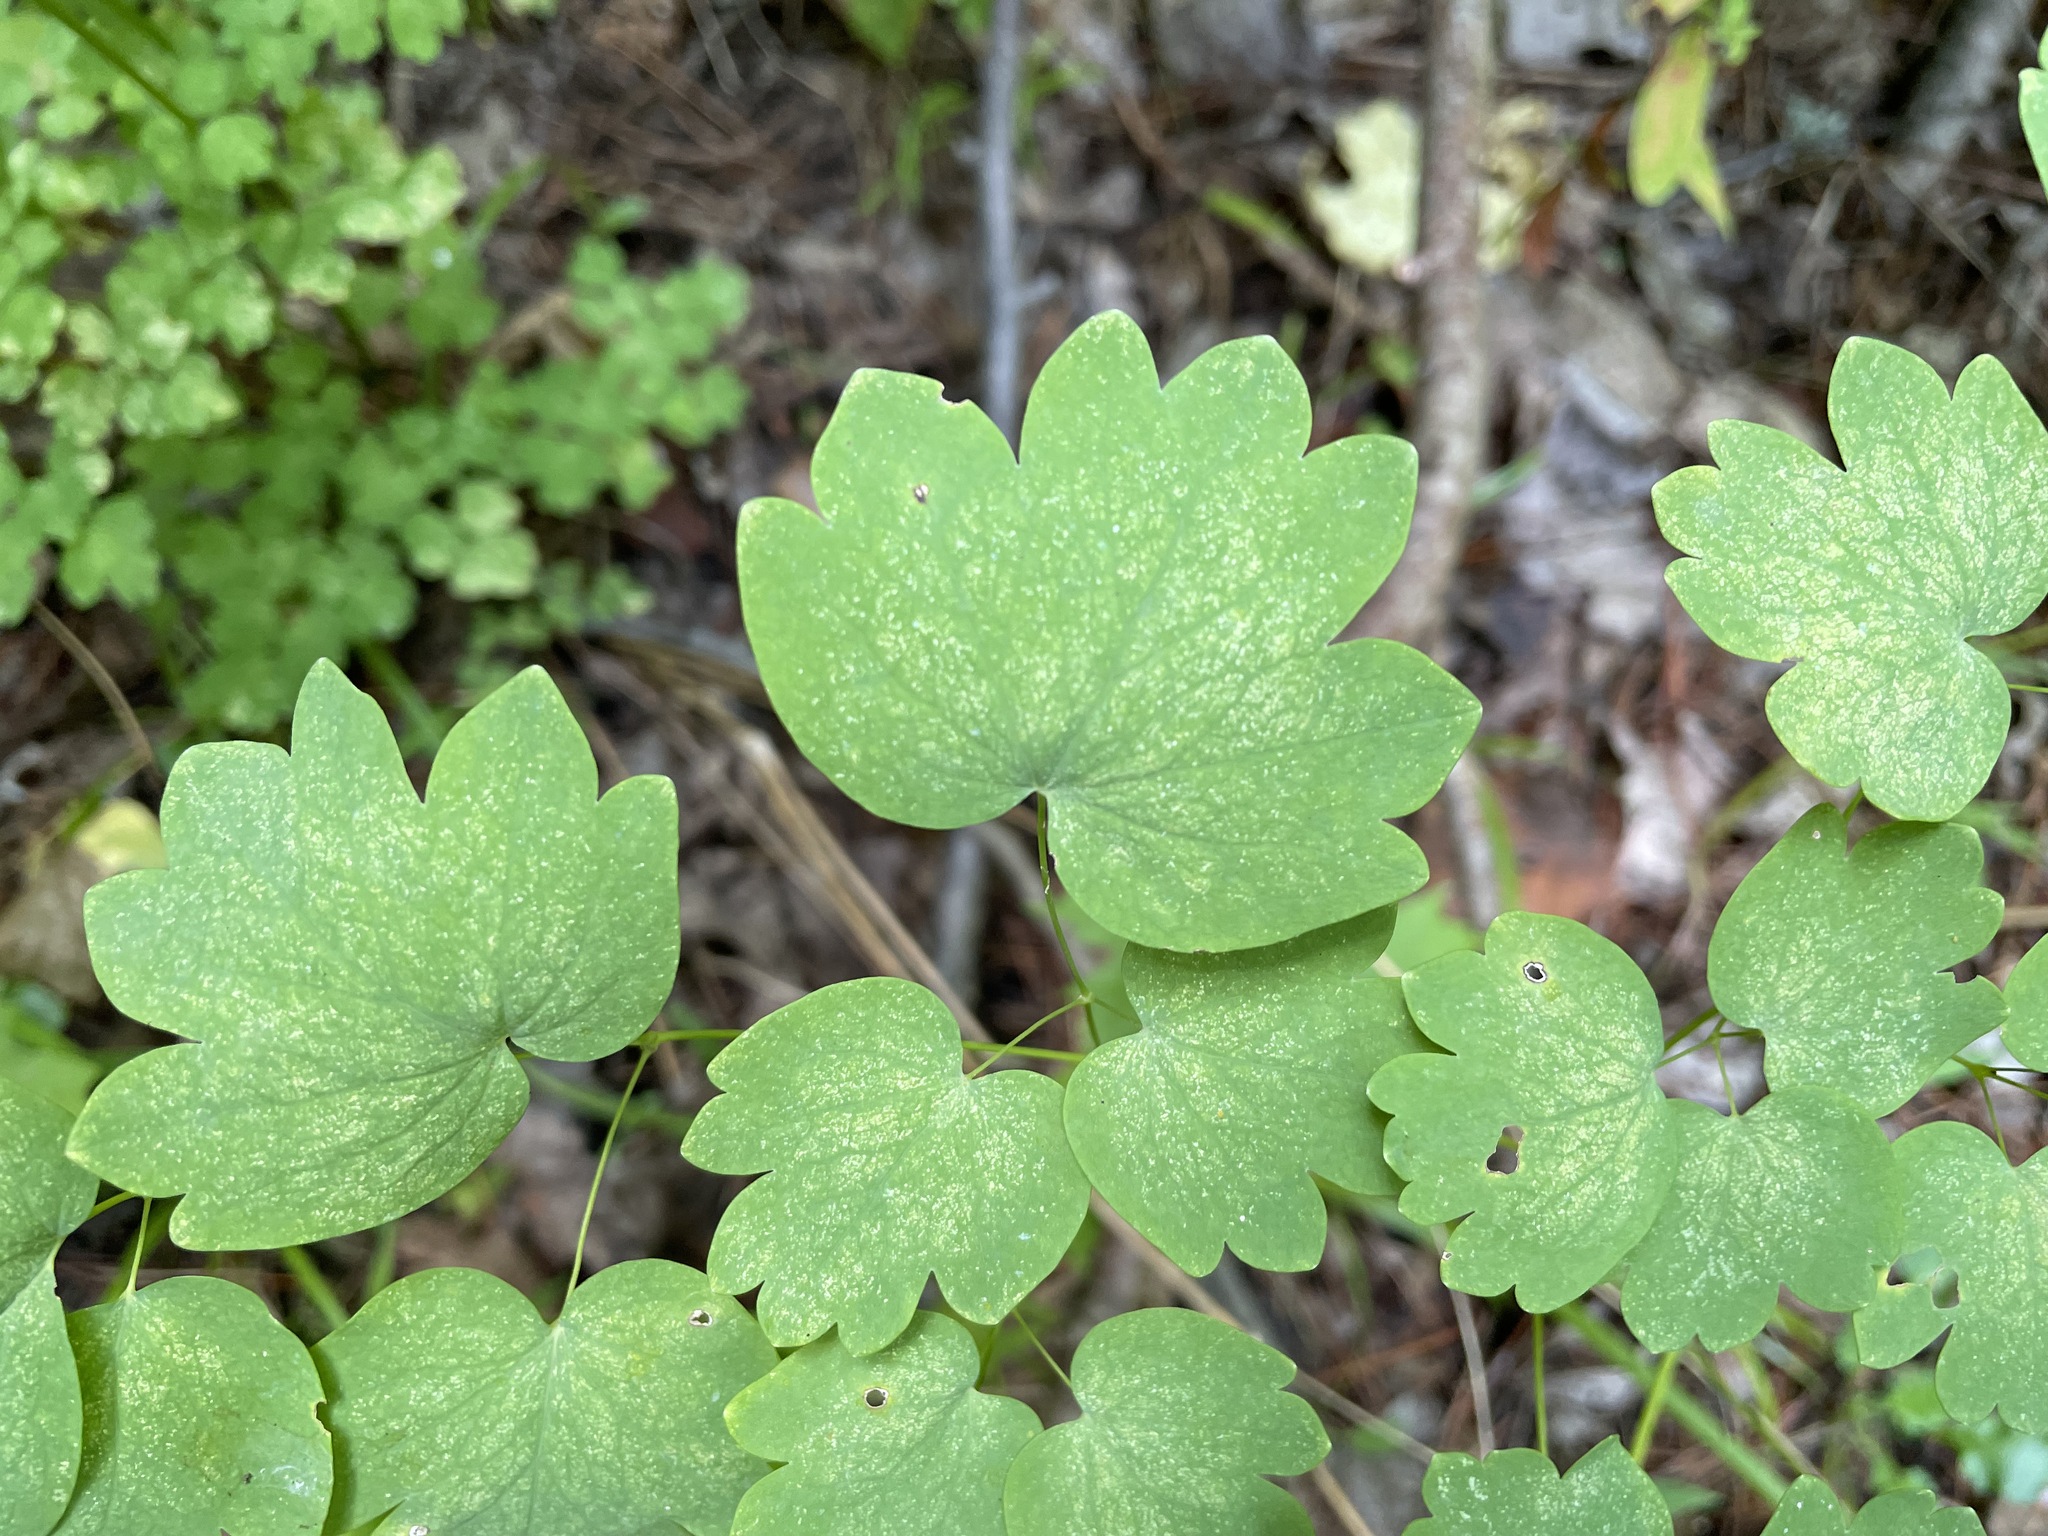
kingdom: Plantae
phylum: Tracheophyta
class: Magnoliopsida
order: Ranunculales
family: Ranunculaceae
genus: Thalictrum
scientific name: Thalictrum venulosum
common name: Early meadow-rue
